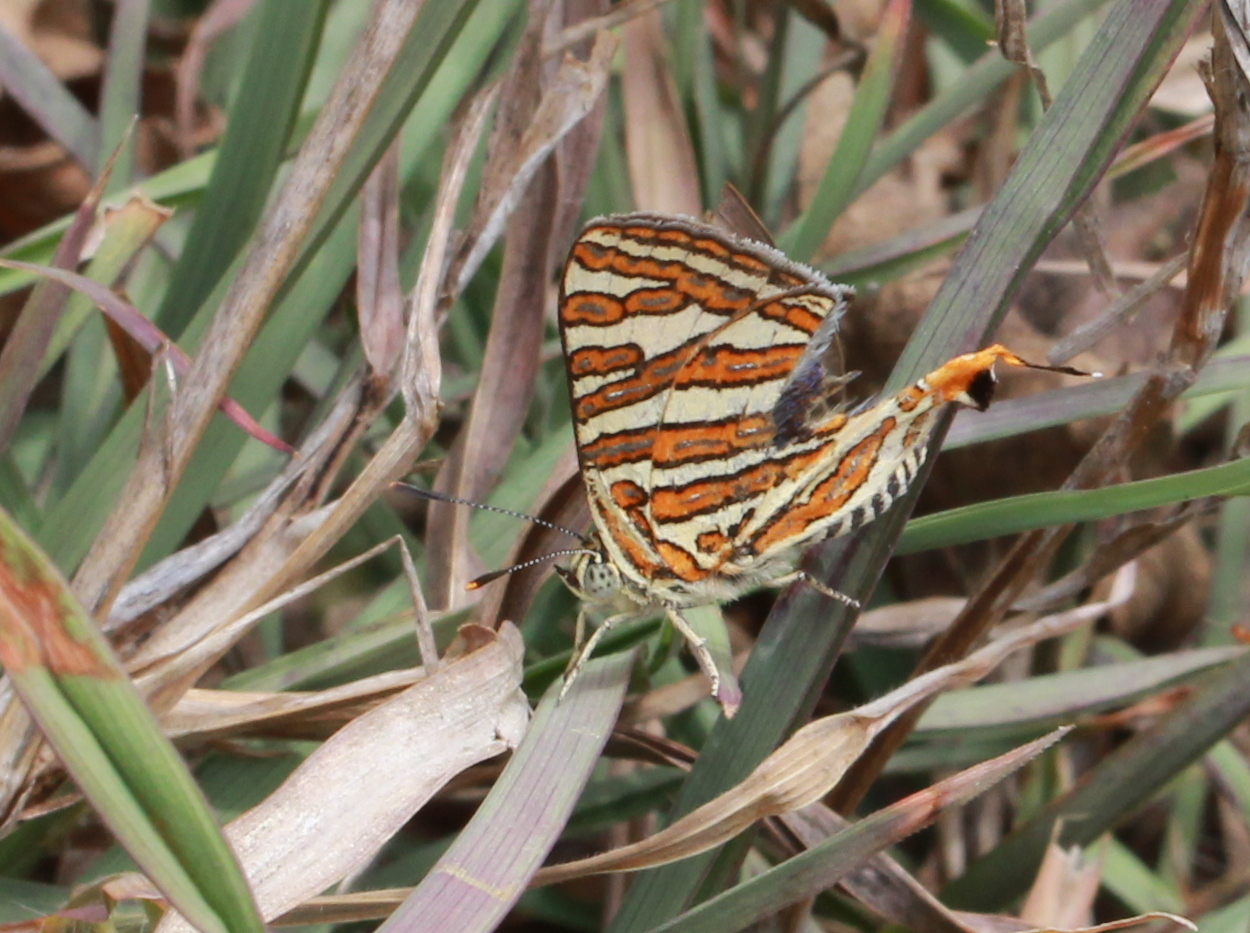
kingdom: Animalia
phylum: Arthropoda
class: Insecta
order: Lepidoptera
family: Lycaenidae
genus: Cigaritis
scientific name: Cigaritis vulcanus
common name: Common silverline
